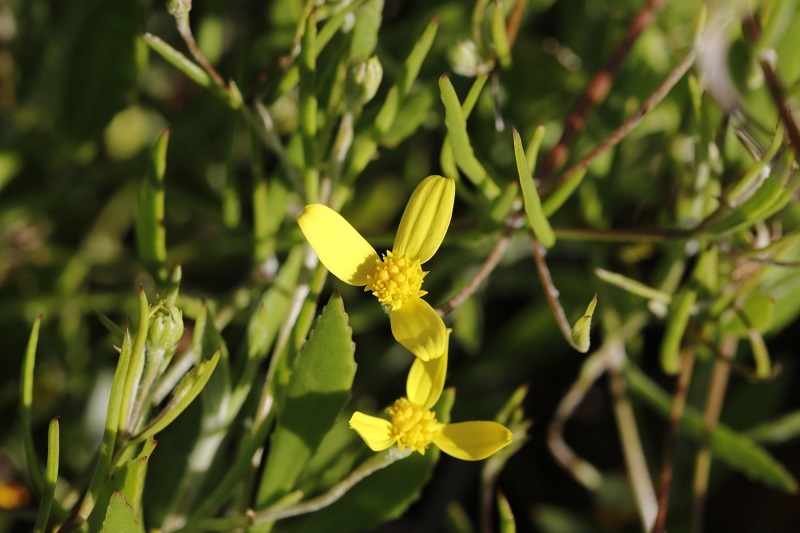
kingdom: Plantae
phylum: Tracheophyta
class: Magnoliopsida
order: Asterales
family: Asteraceae
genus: Osteospermum
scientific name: Osteospermum ciliatum
